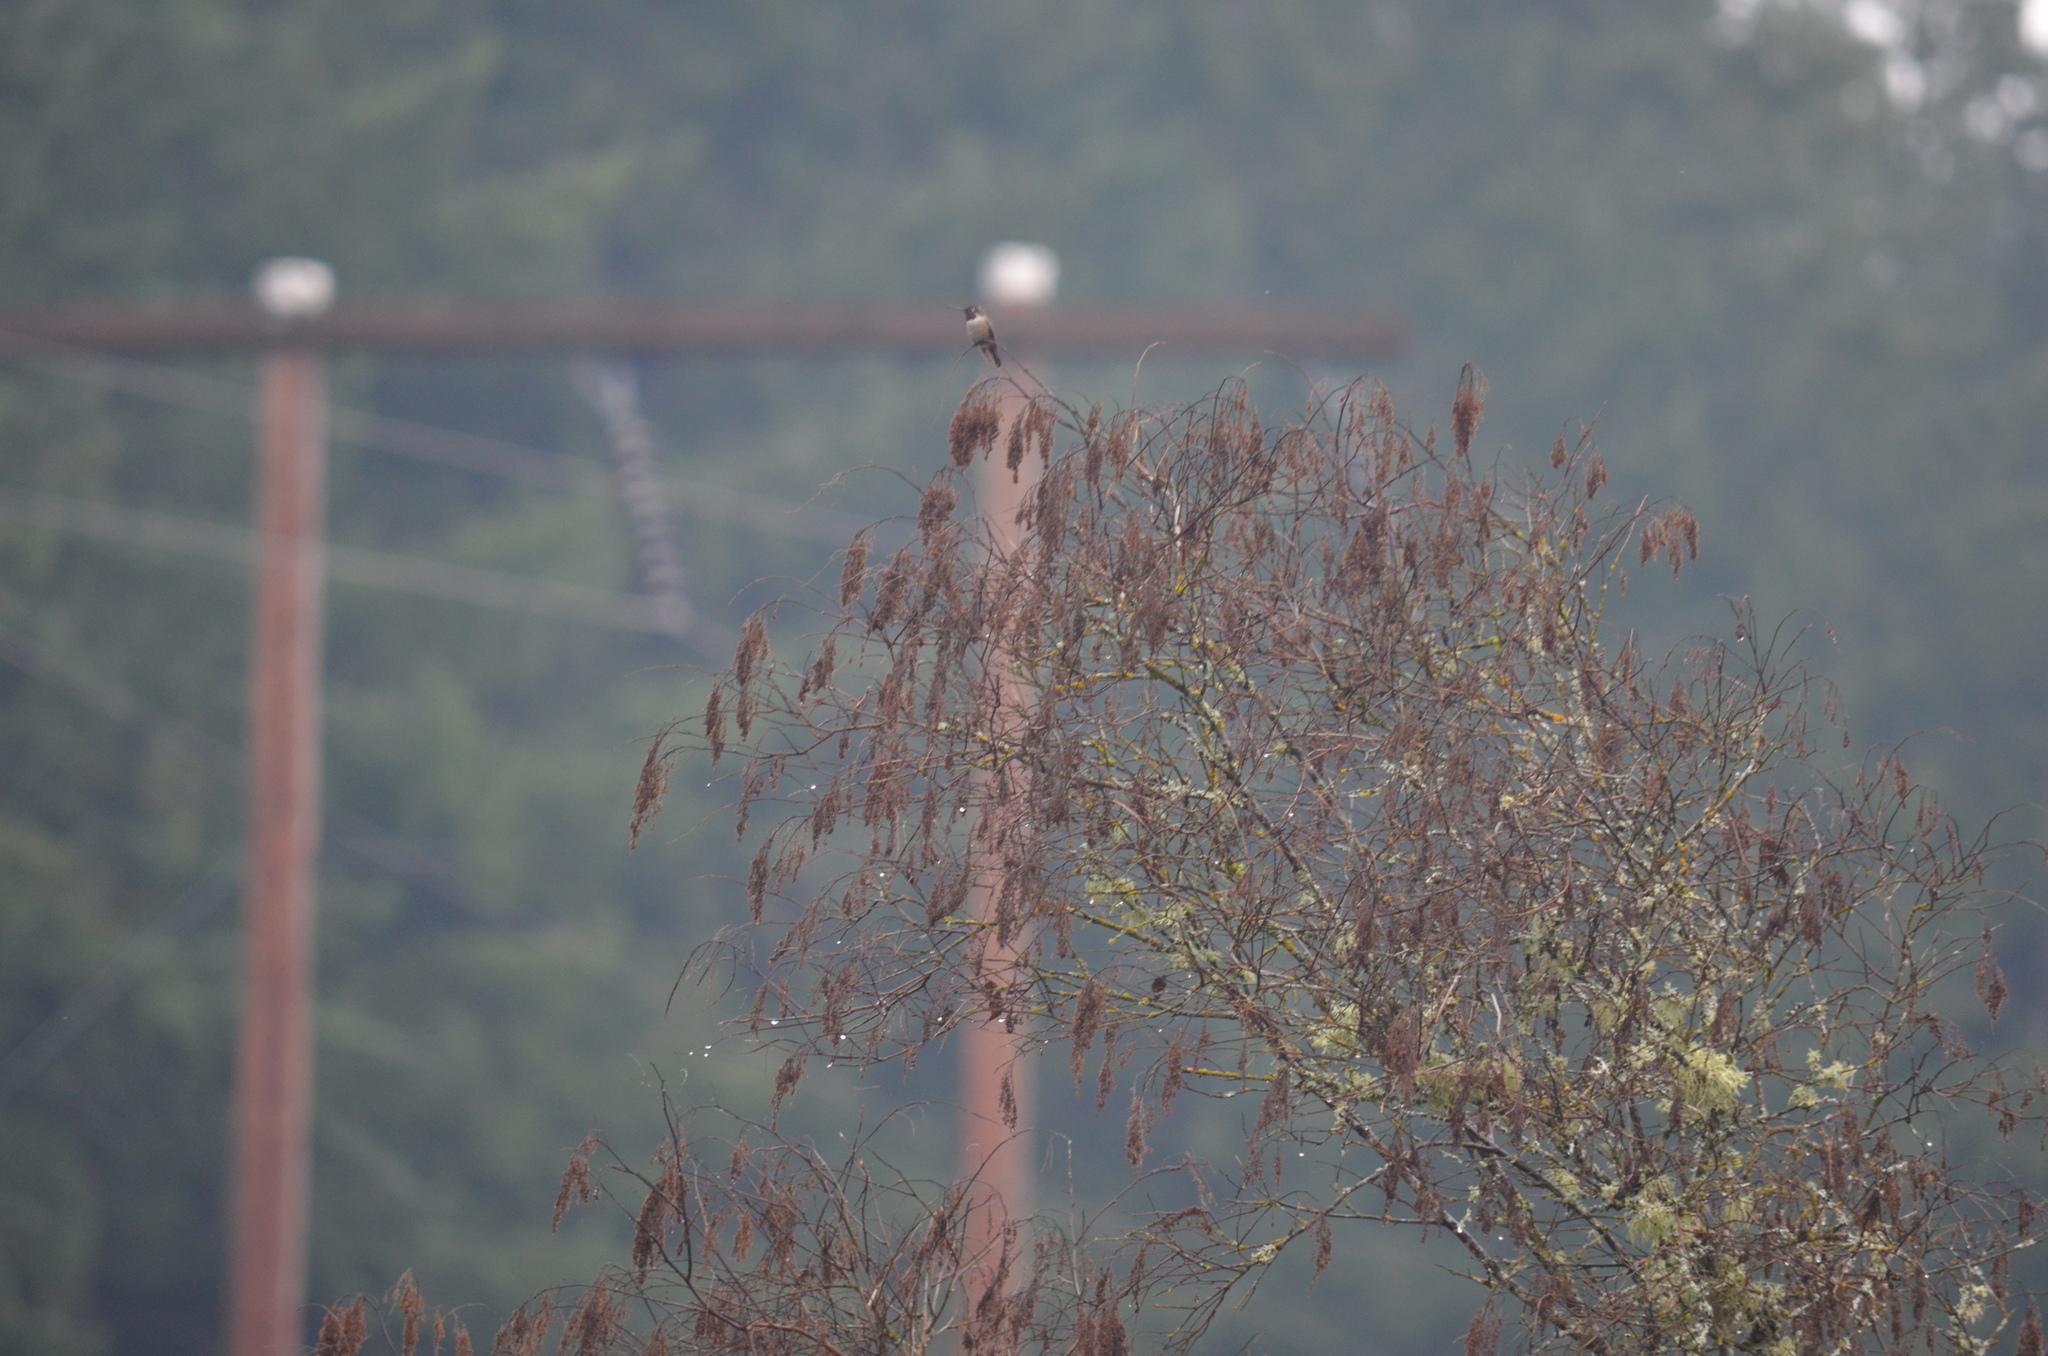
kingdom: Animalia
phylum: Chordata
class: Aves
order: Apodiformes
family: Trochilidae
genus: Calypte
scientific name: Calypte anna
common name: Anna's hummingbird
